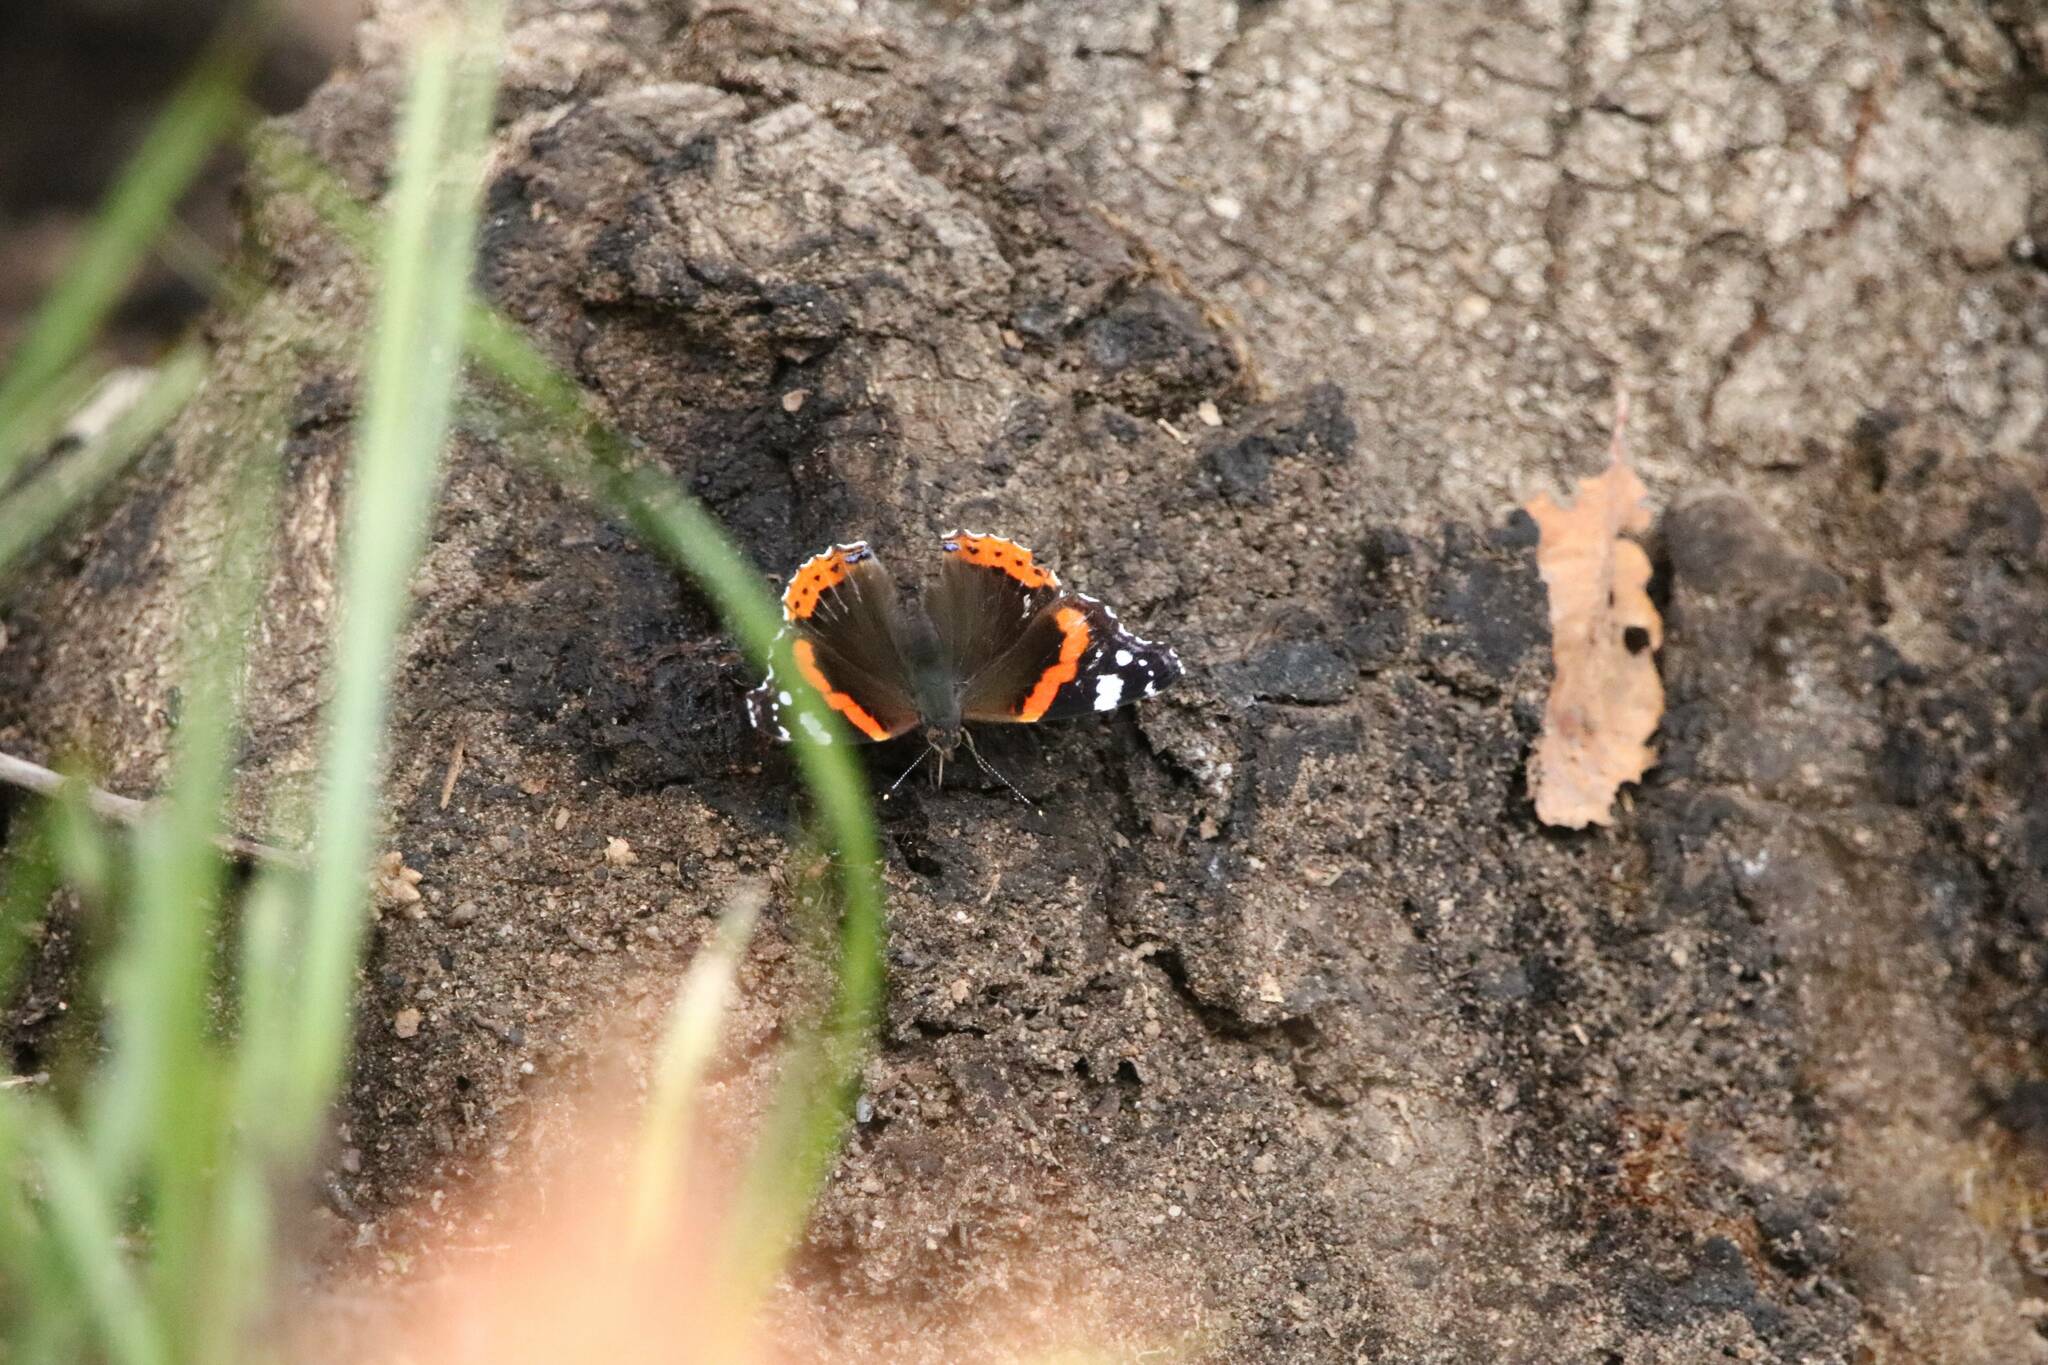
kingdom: Animalia
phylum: Arthropoda
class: Insecta
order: Lepidoptera
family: Nymphalidae
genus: Vanessa
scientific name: Vanessa atalanta
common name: Red admiral
